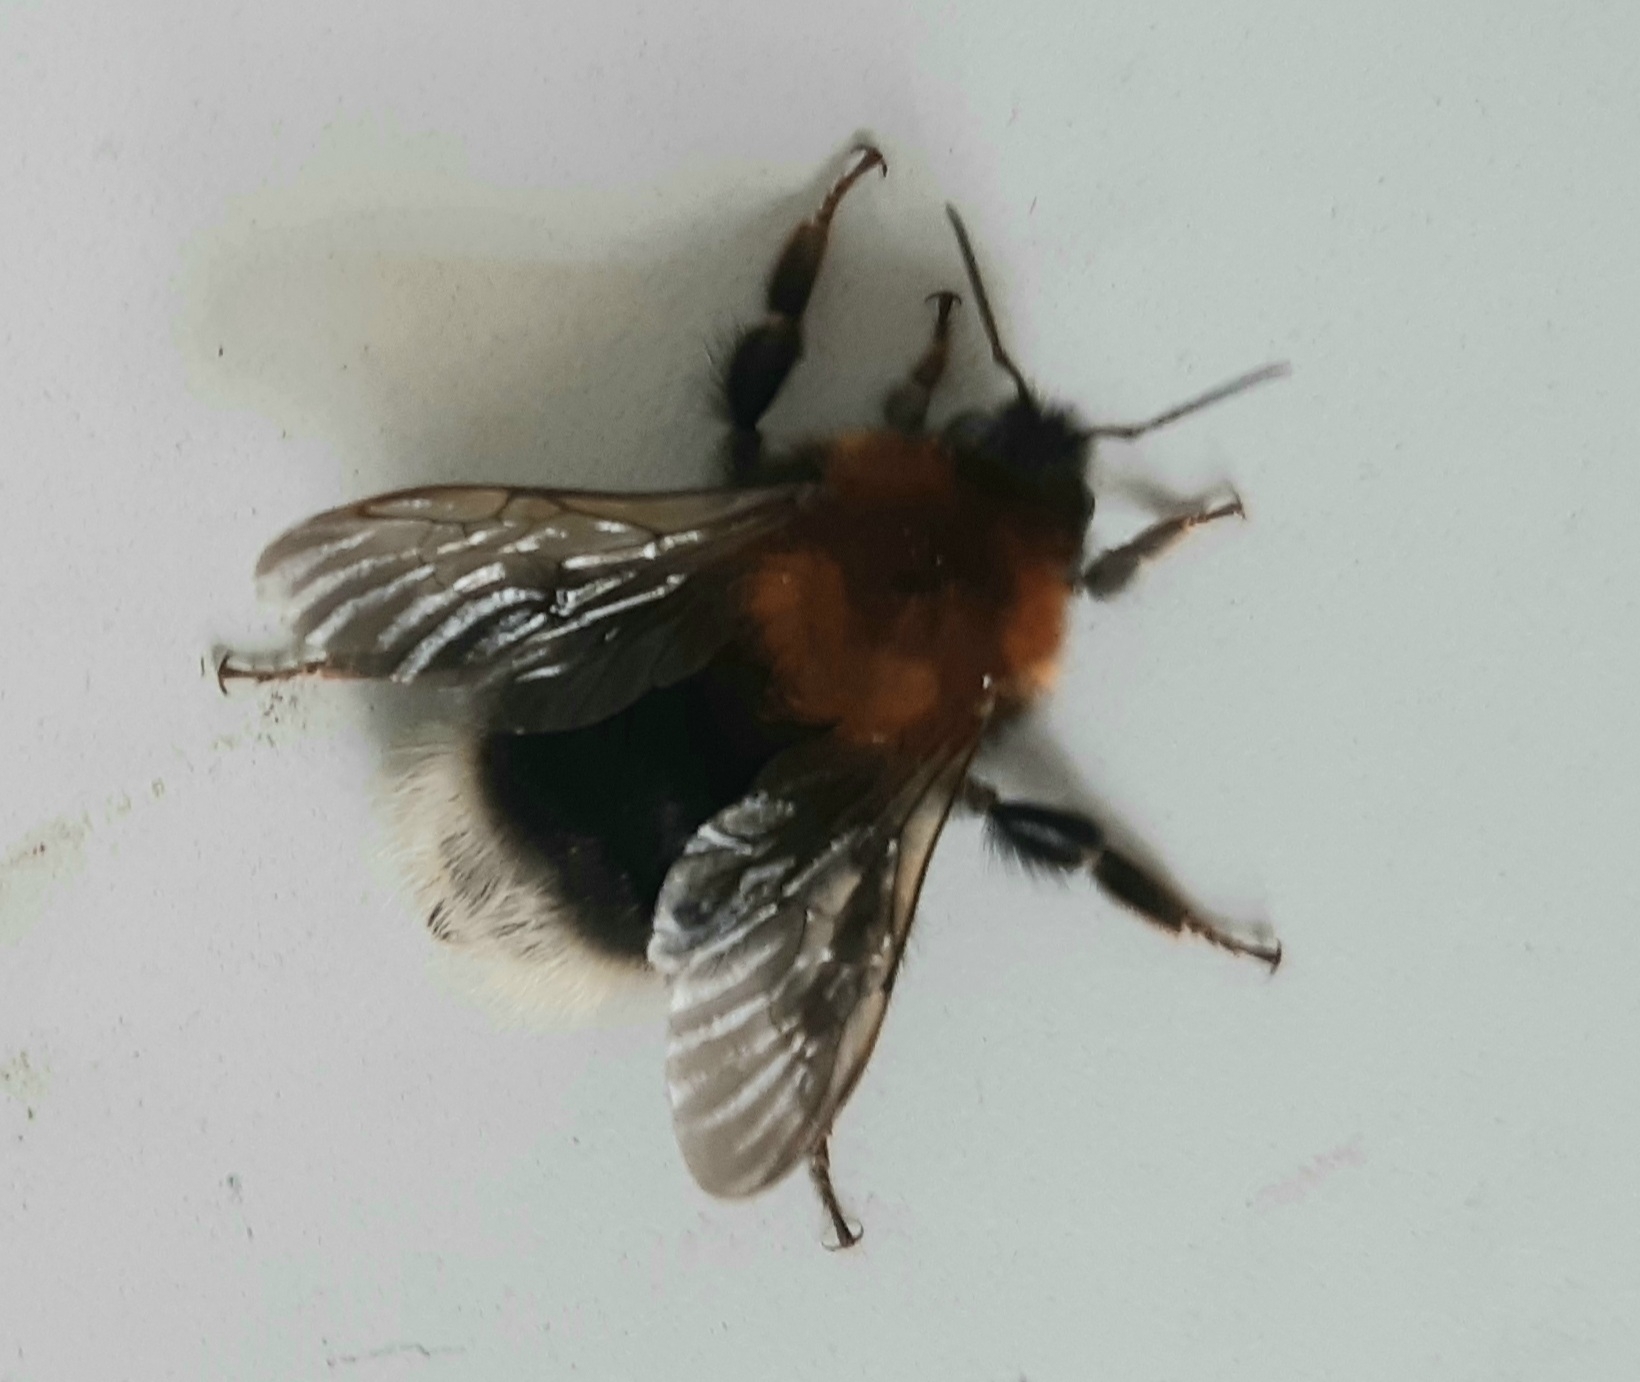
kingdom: Animalia
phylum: Arthropoda
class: Insecta
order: Hymenoptera
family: Apidae
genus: Bombus
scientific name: Bombus hypnorum
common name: New garden bumblebee
